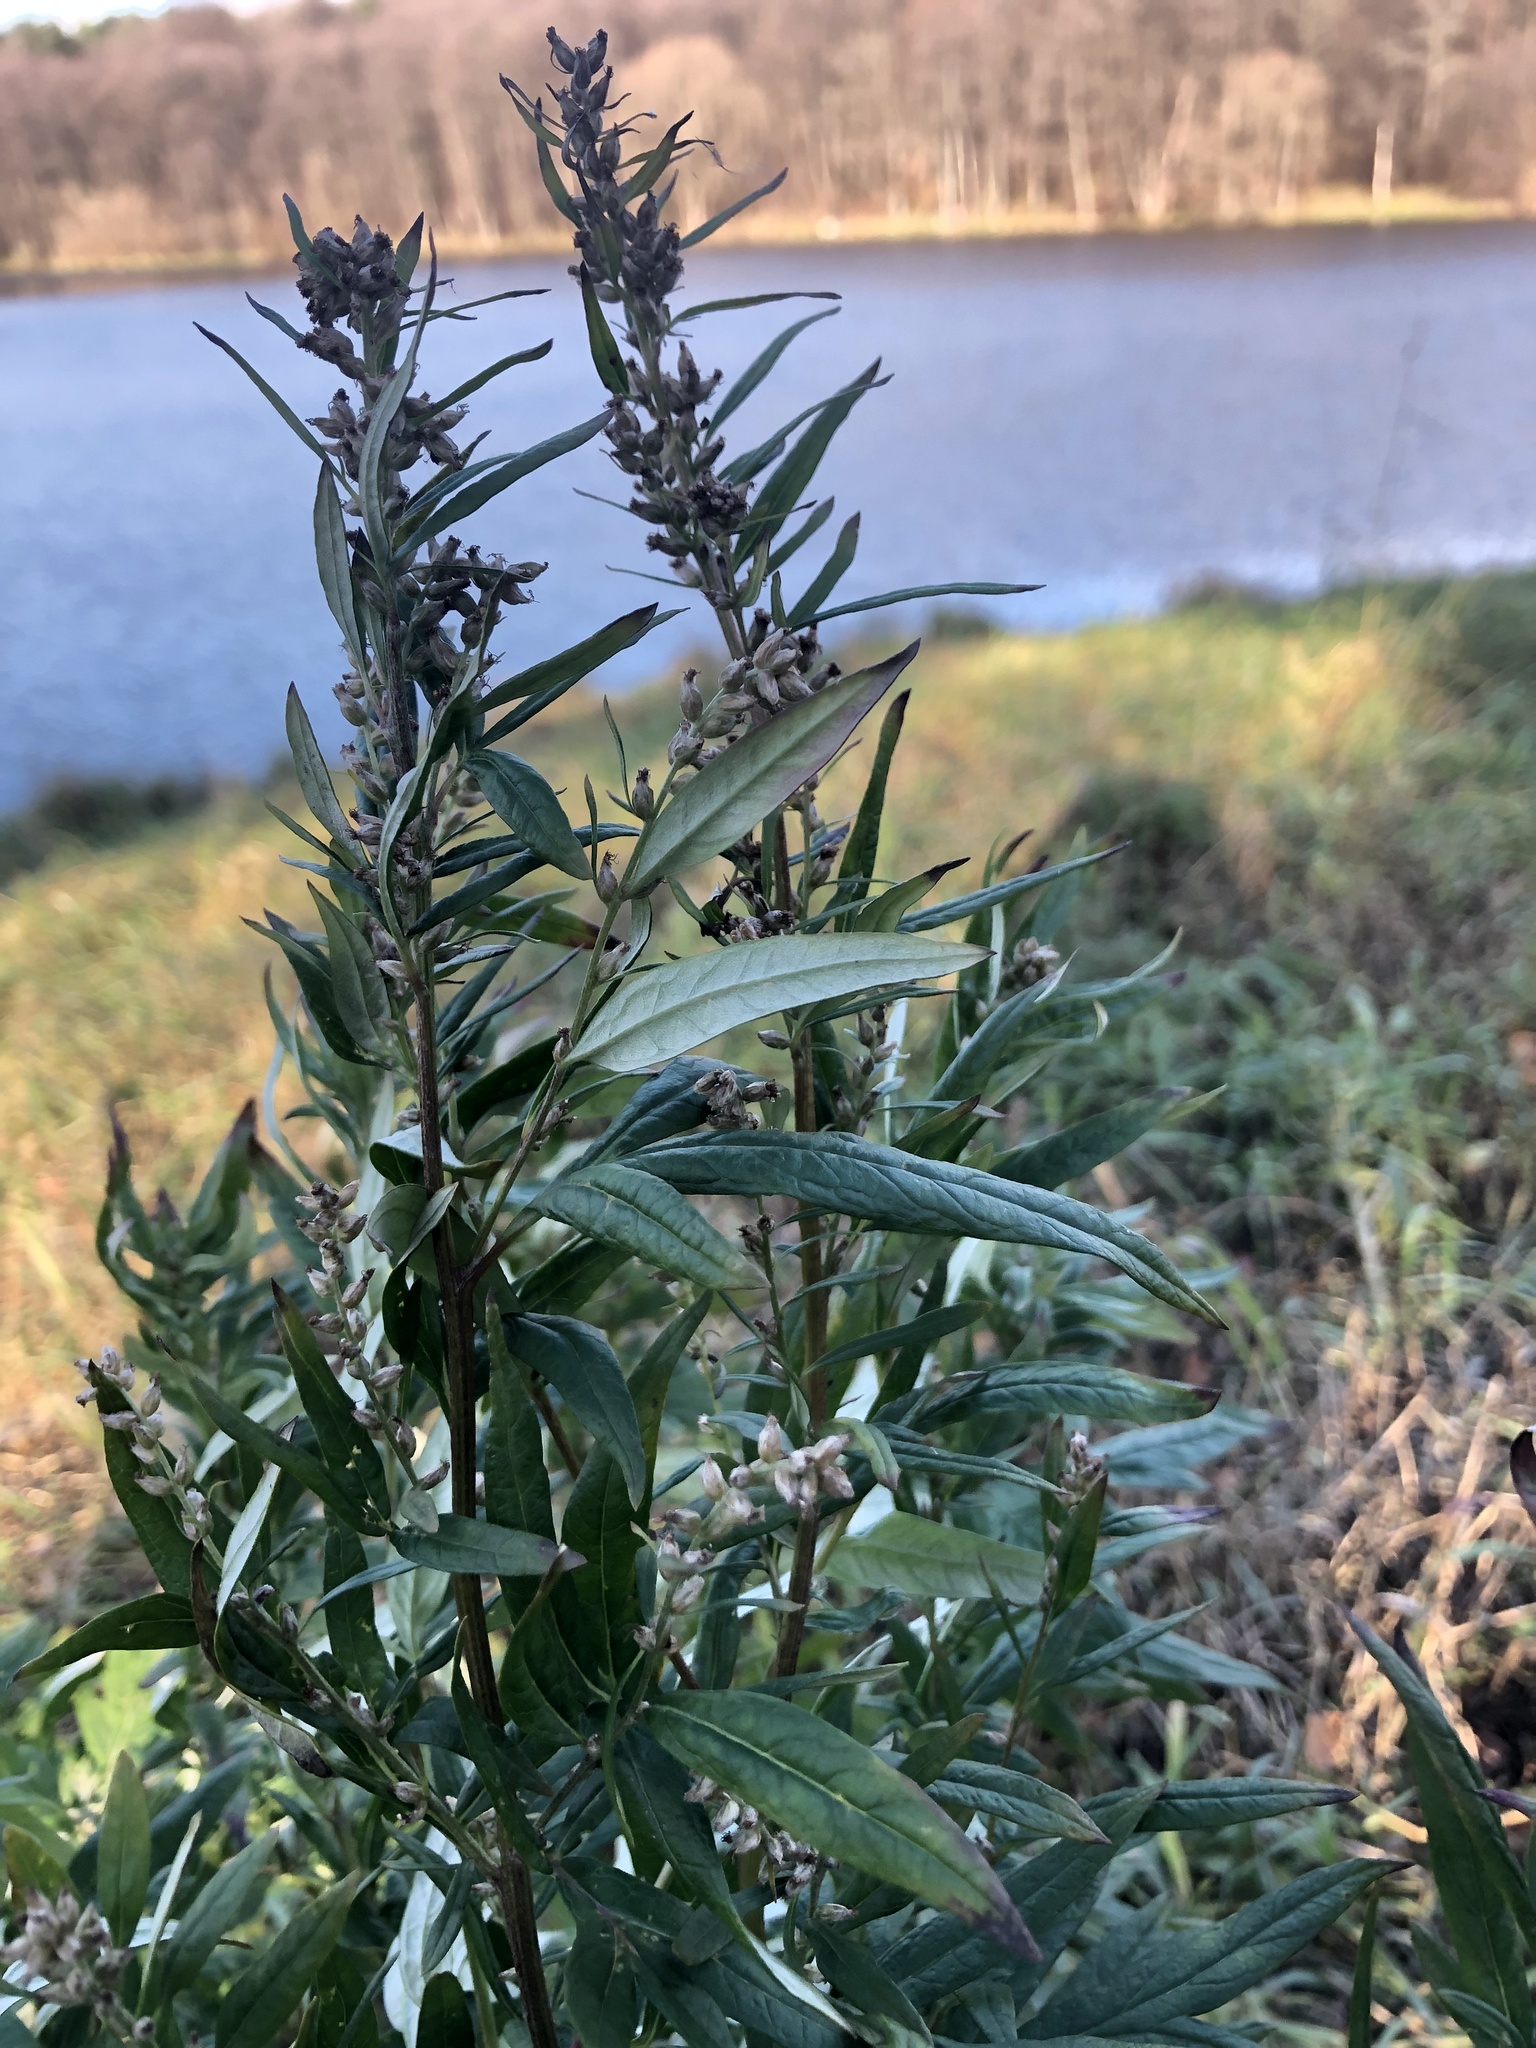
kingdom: Plantae
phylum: Tracheophyta
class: Magnoliopsida
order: Asterales
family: Asteraceae
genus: Artemisia
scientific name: Artemisia vulgaris
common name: Mugwort
